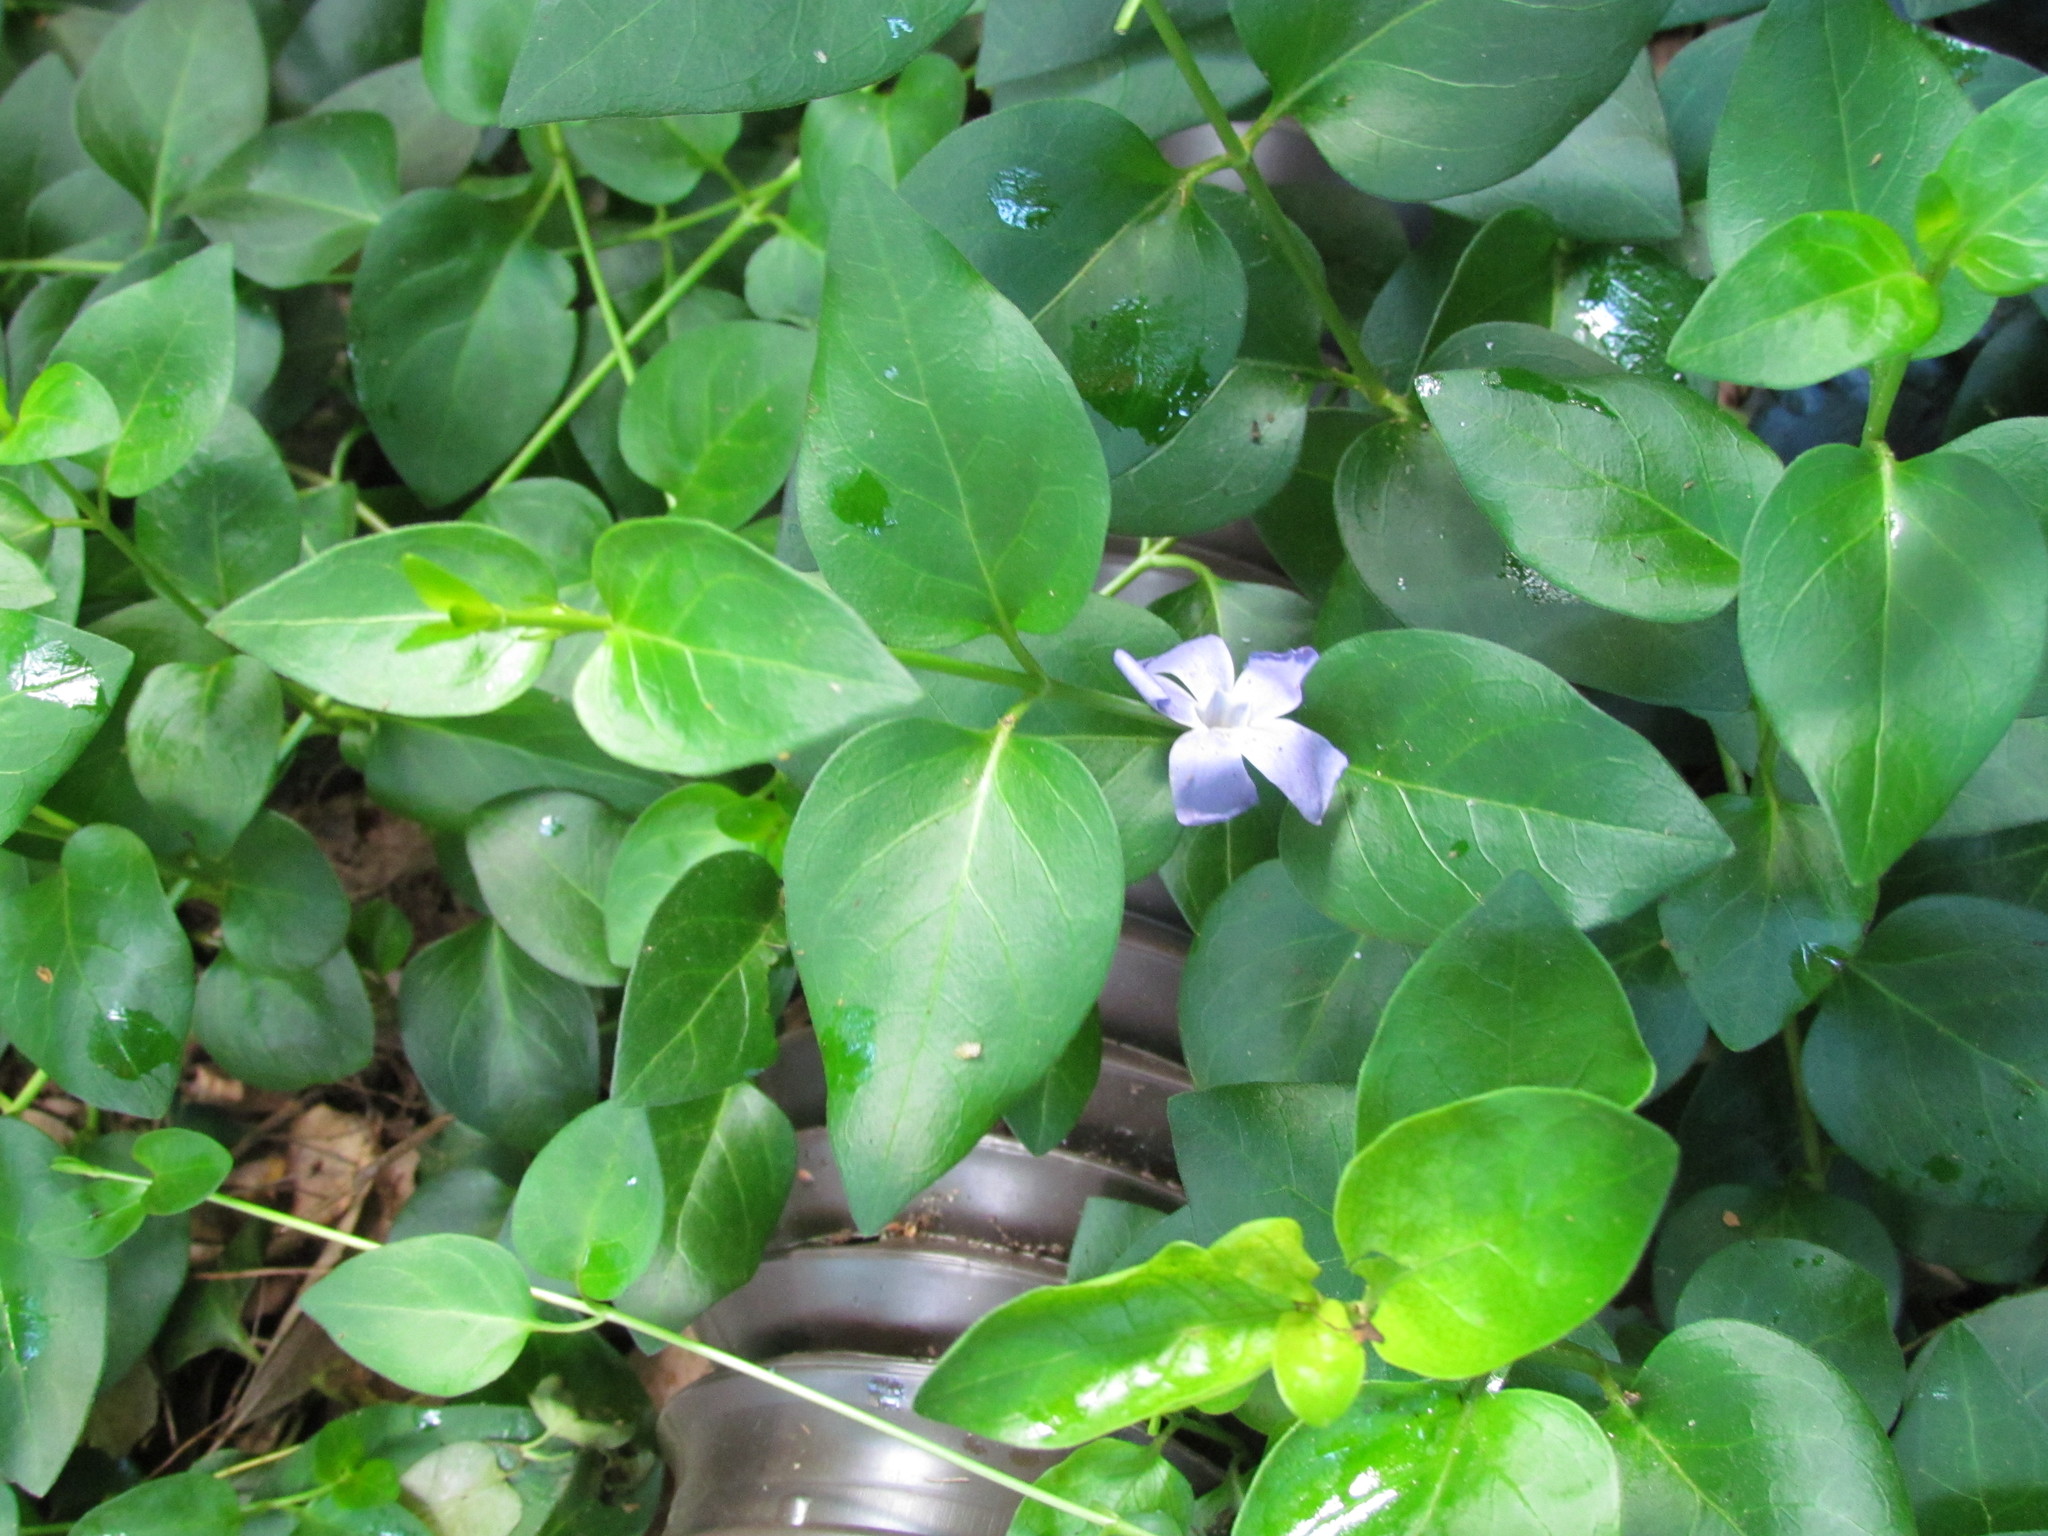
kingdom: Plantae
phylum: Tracheophyta
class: Magnoliopsida
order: Gentianales
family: Apocynaceae
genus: Vinca
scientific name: Vinca major
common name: Greater periwinkle
